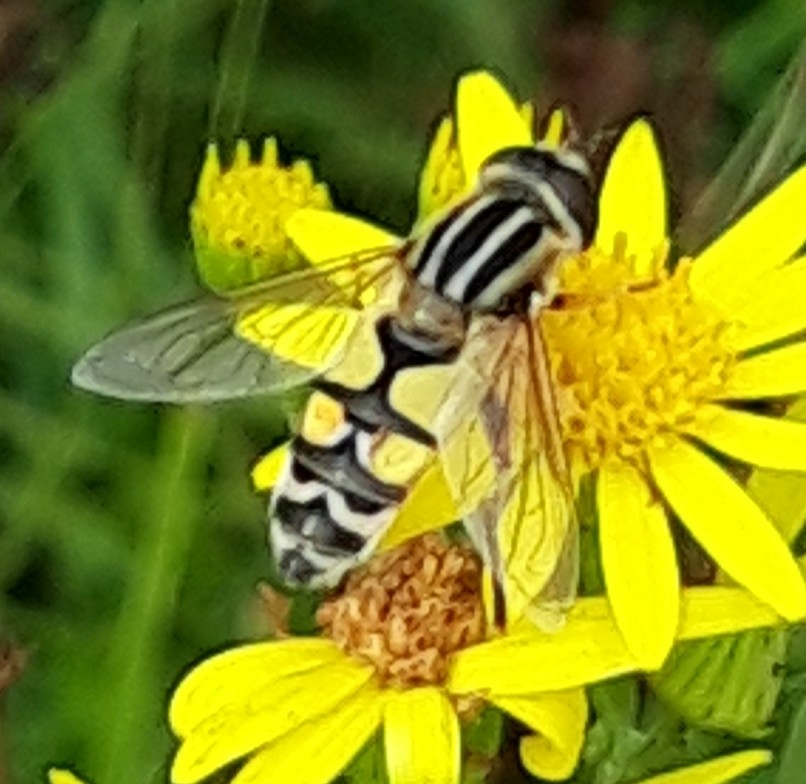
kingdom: Animalia
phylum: Arthropoda
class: Insecta
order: Diptera
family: Syrphidae
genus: Helophilus
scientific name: Helophilus trivittatus
